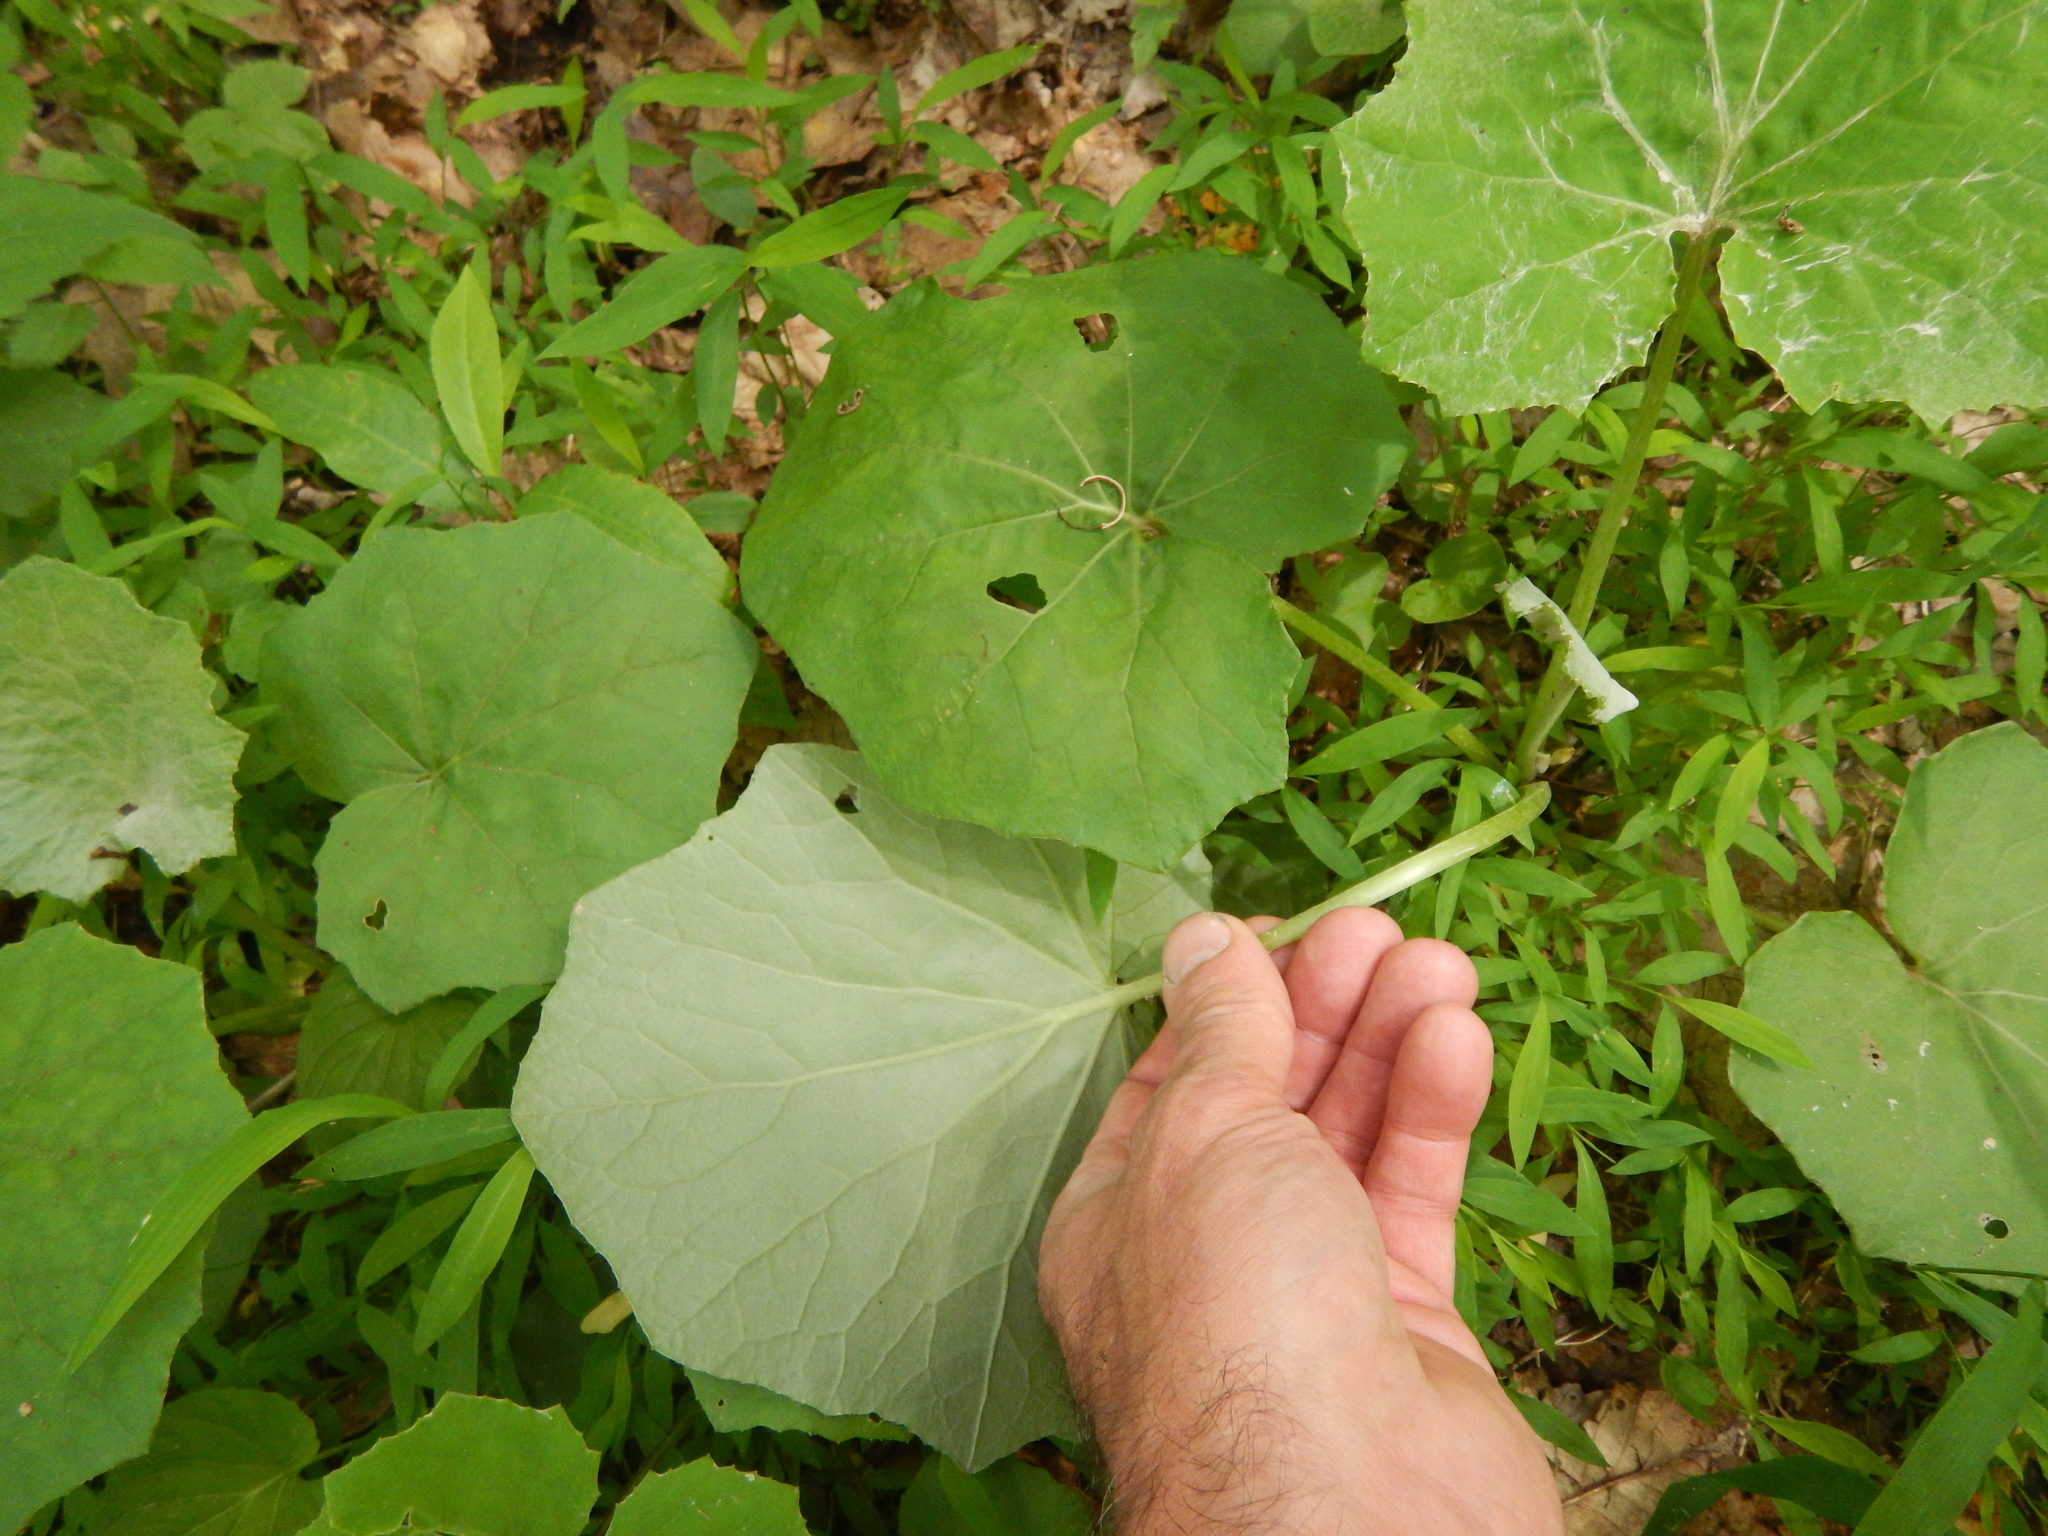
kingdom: Plantae
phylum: Tracheophyta
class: Magnoliopsida
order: Asterales
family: Asteraceae
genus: Tussilago
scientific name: Tussilago farfara
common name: Coltsfoot
